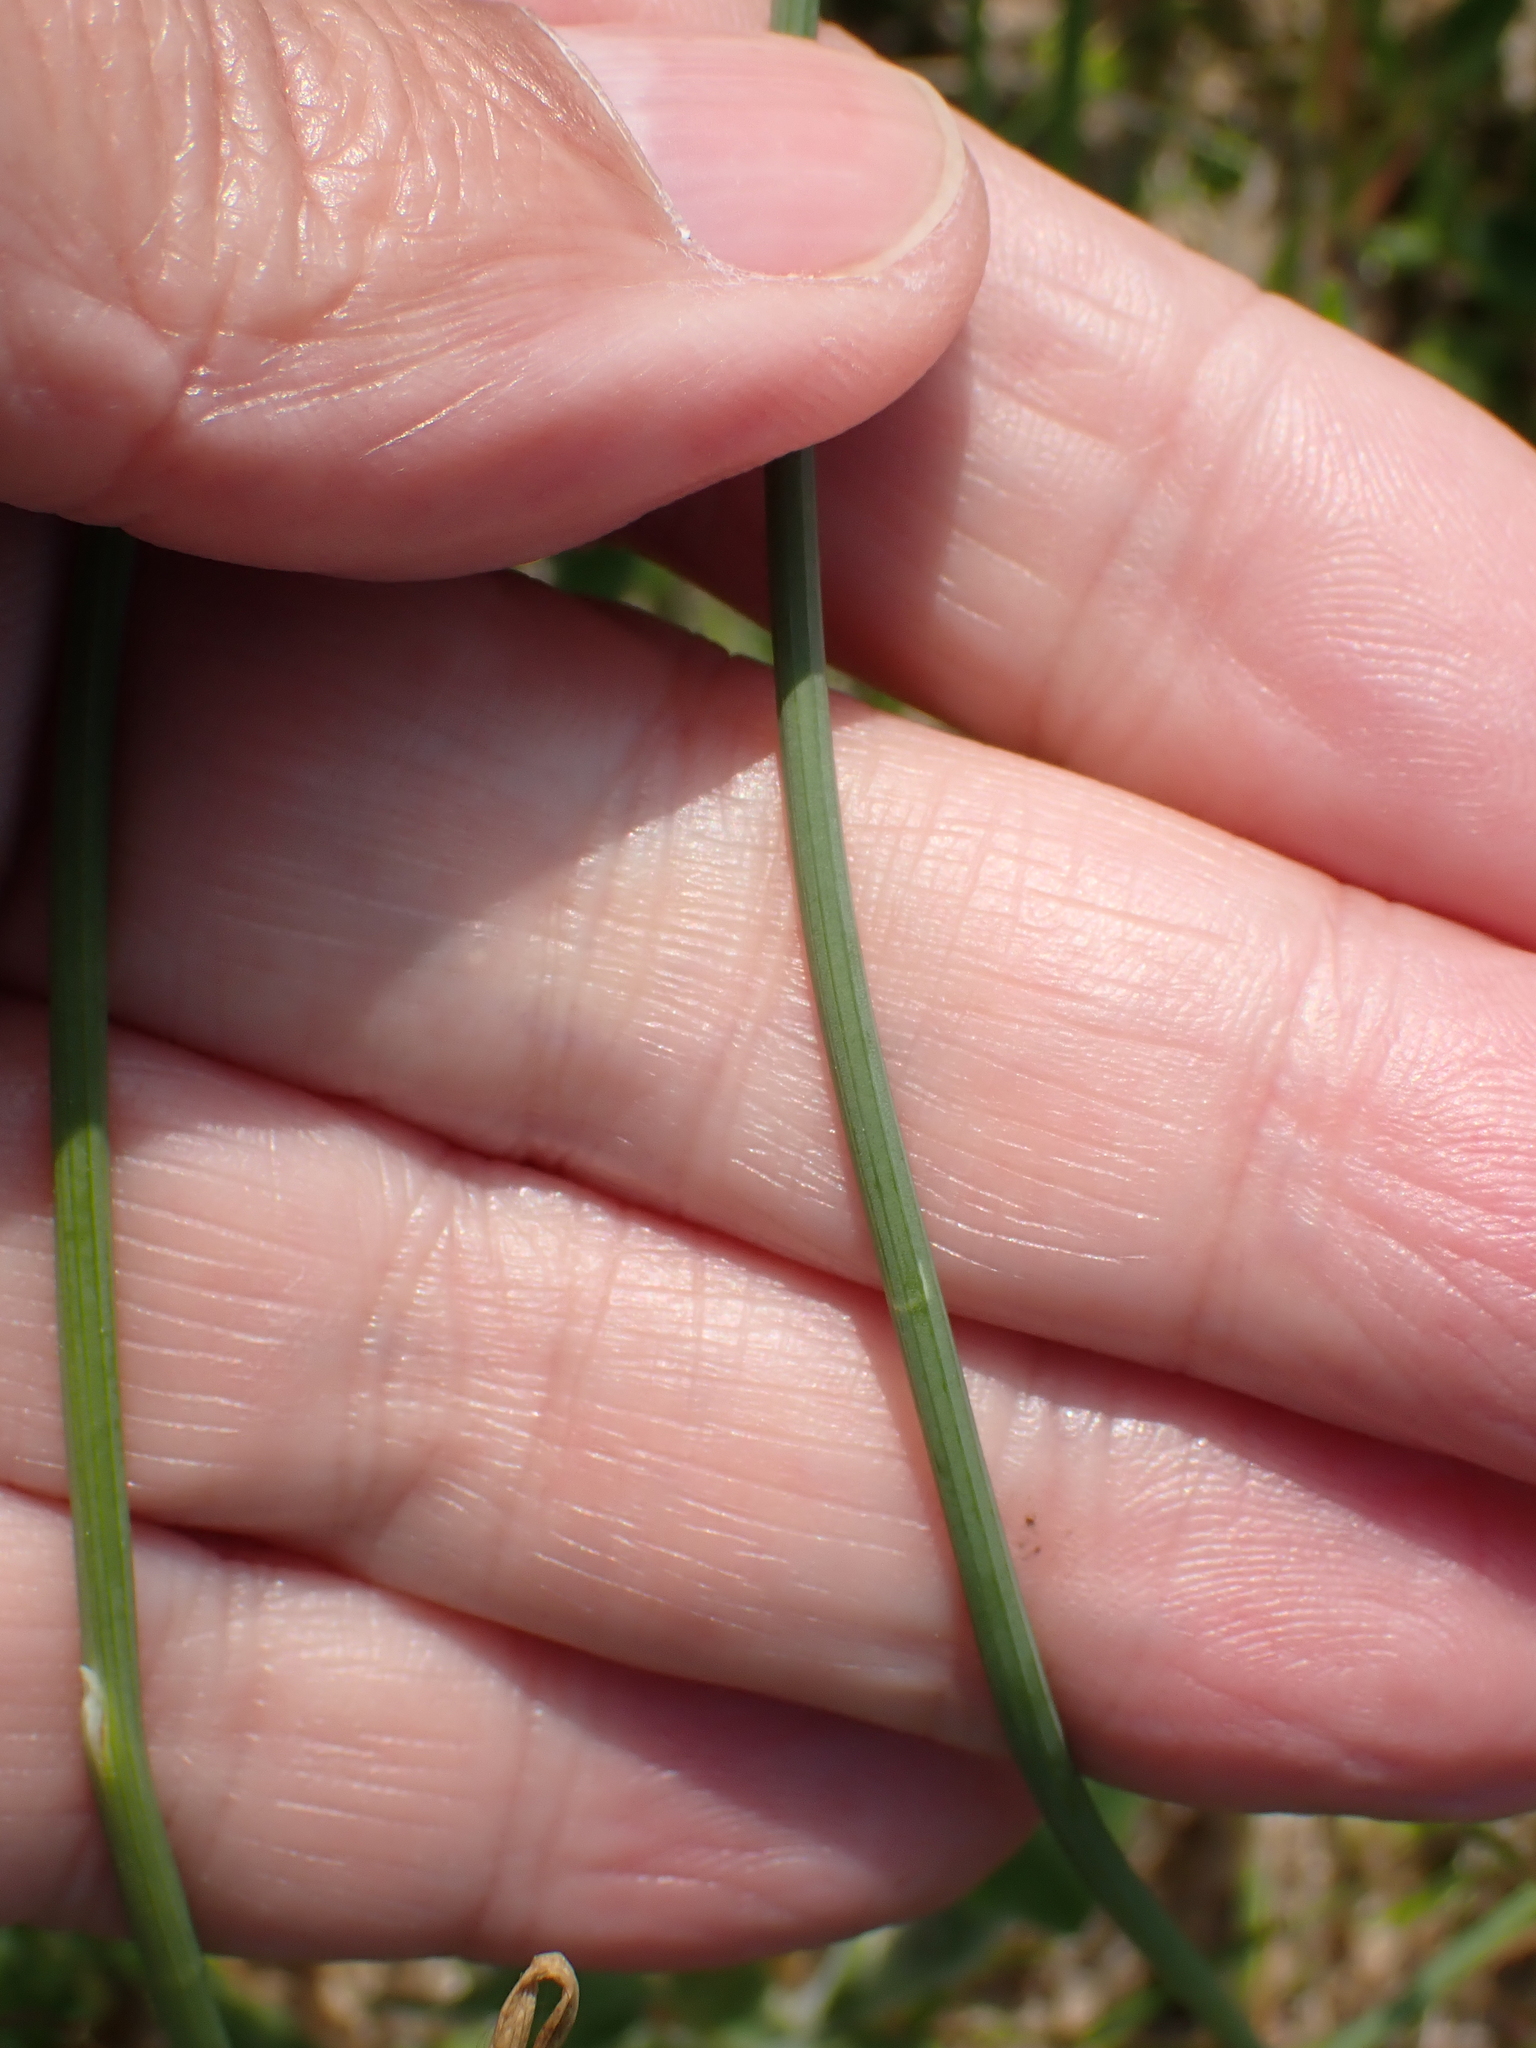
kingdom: Plantae
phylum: Tracheophyta
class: Liliopsida
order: Asparagales
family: Amaryllidaceae
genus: Allium
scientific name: Allium vineale
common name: Crow garlic
